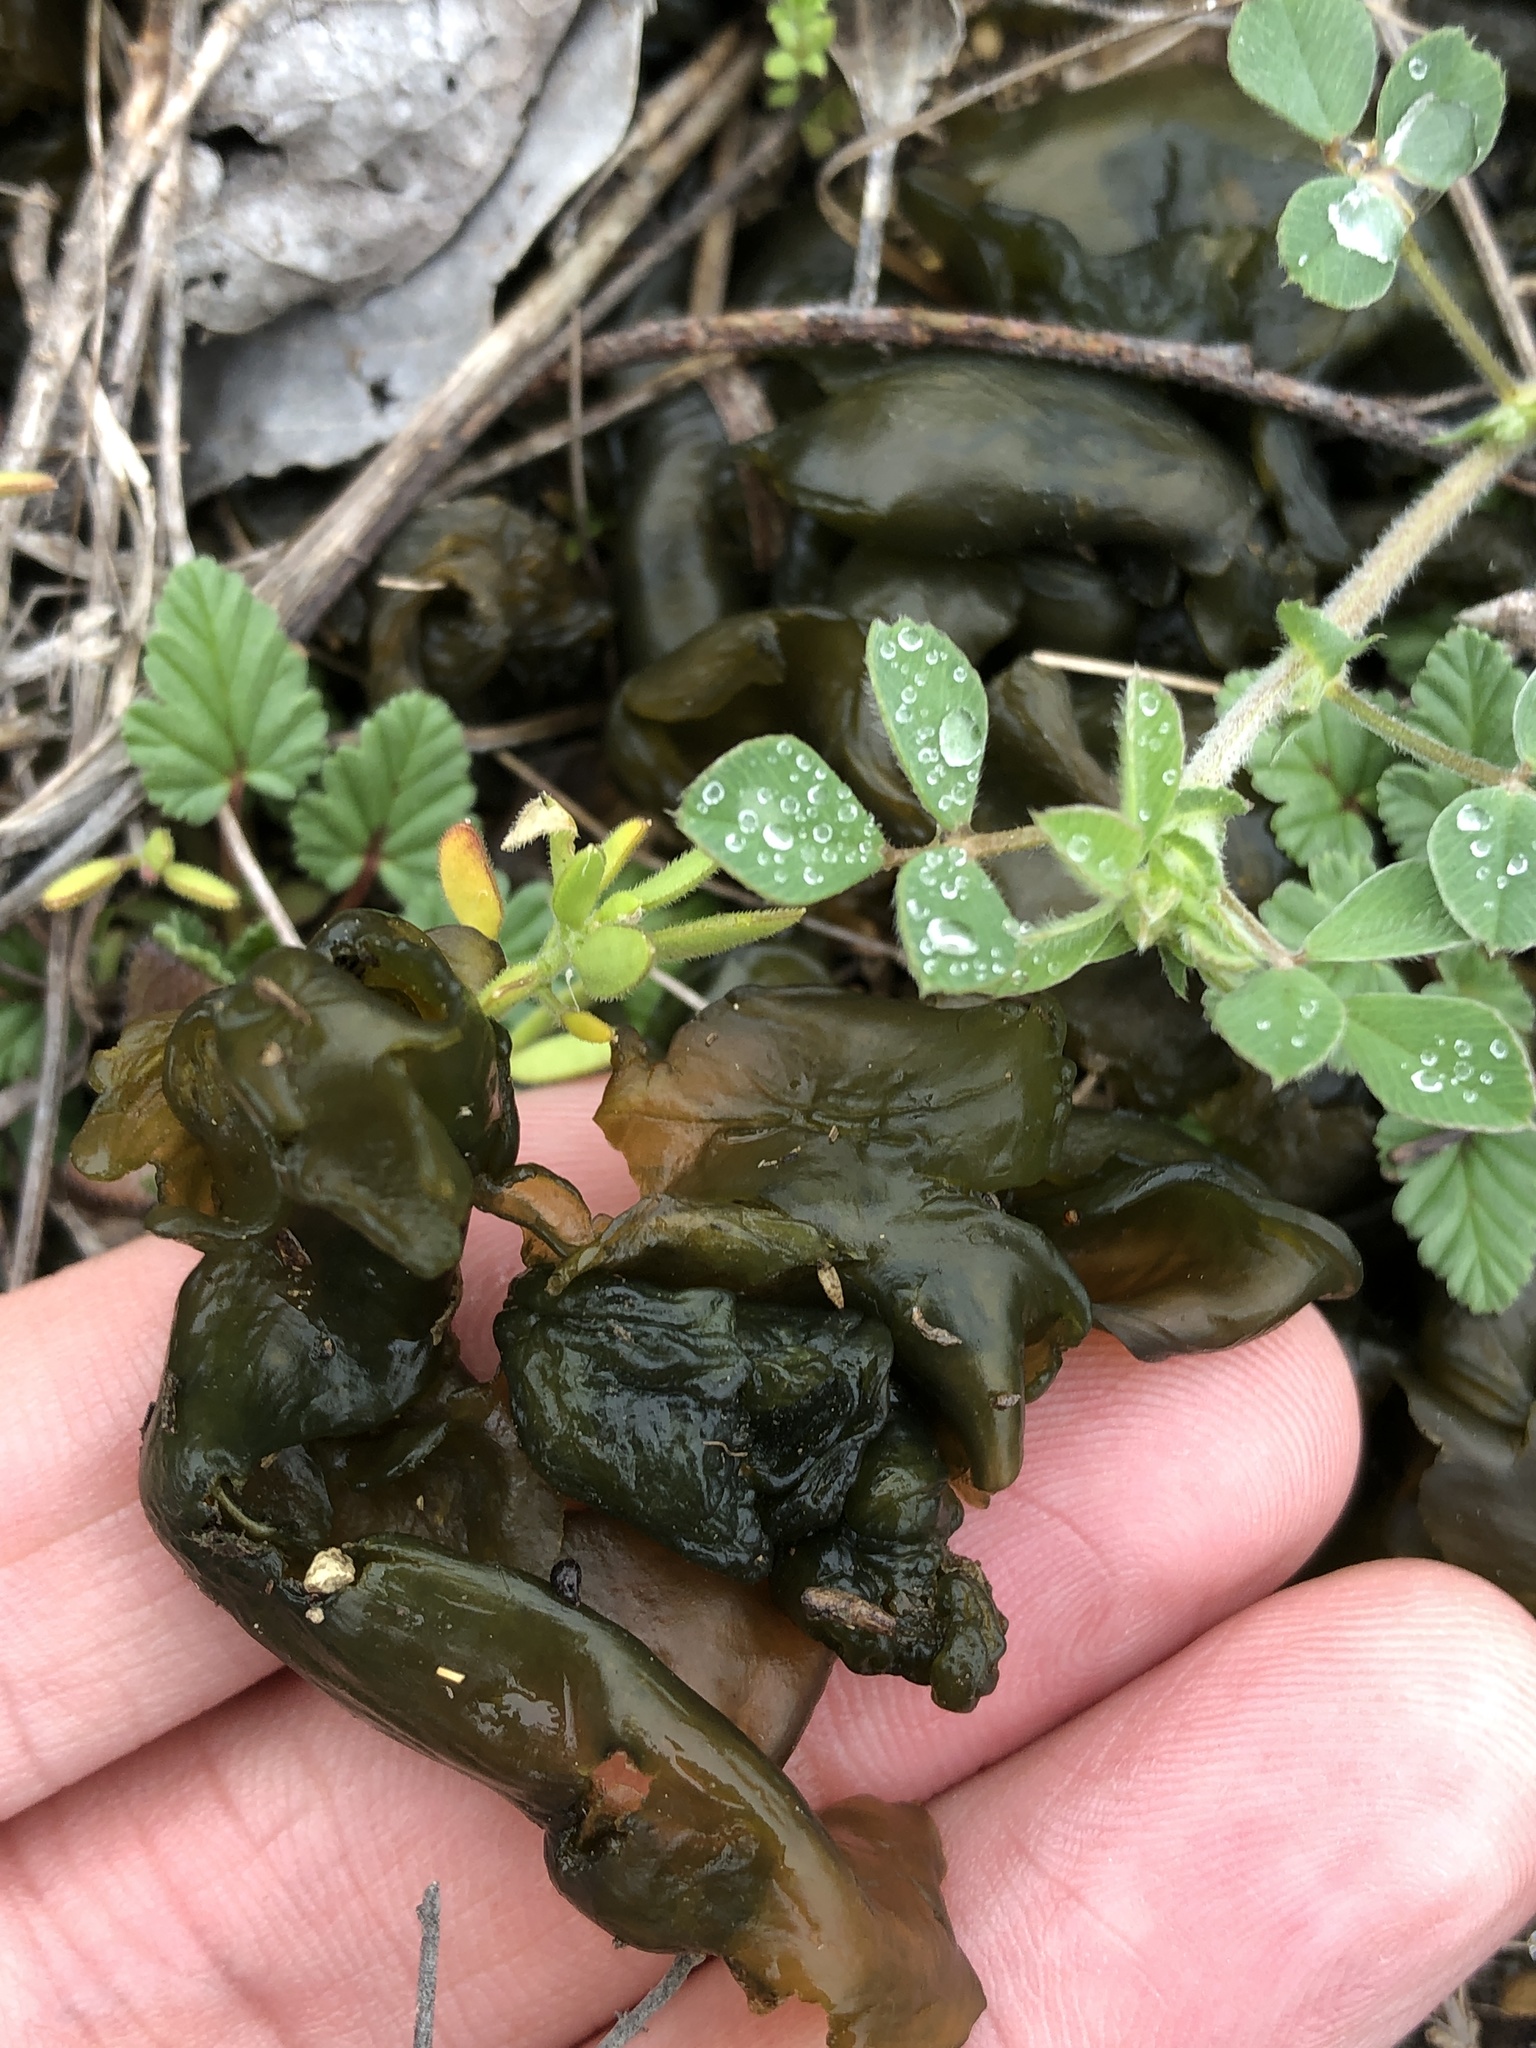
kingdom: Bacteria
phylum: Cyanobacteria
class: Cyanobacteriia
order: Cyanobacteriales
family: Nostocaceae
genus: Nostoc
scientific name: Nostoc commune
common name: Star jelly
